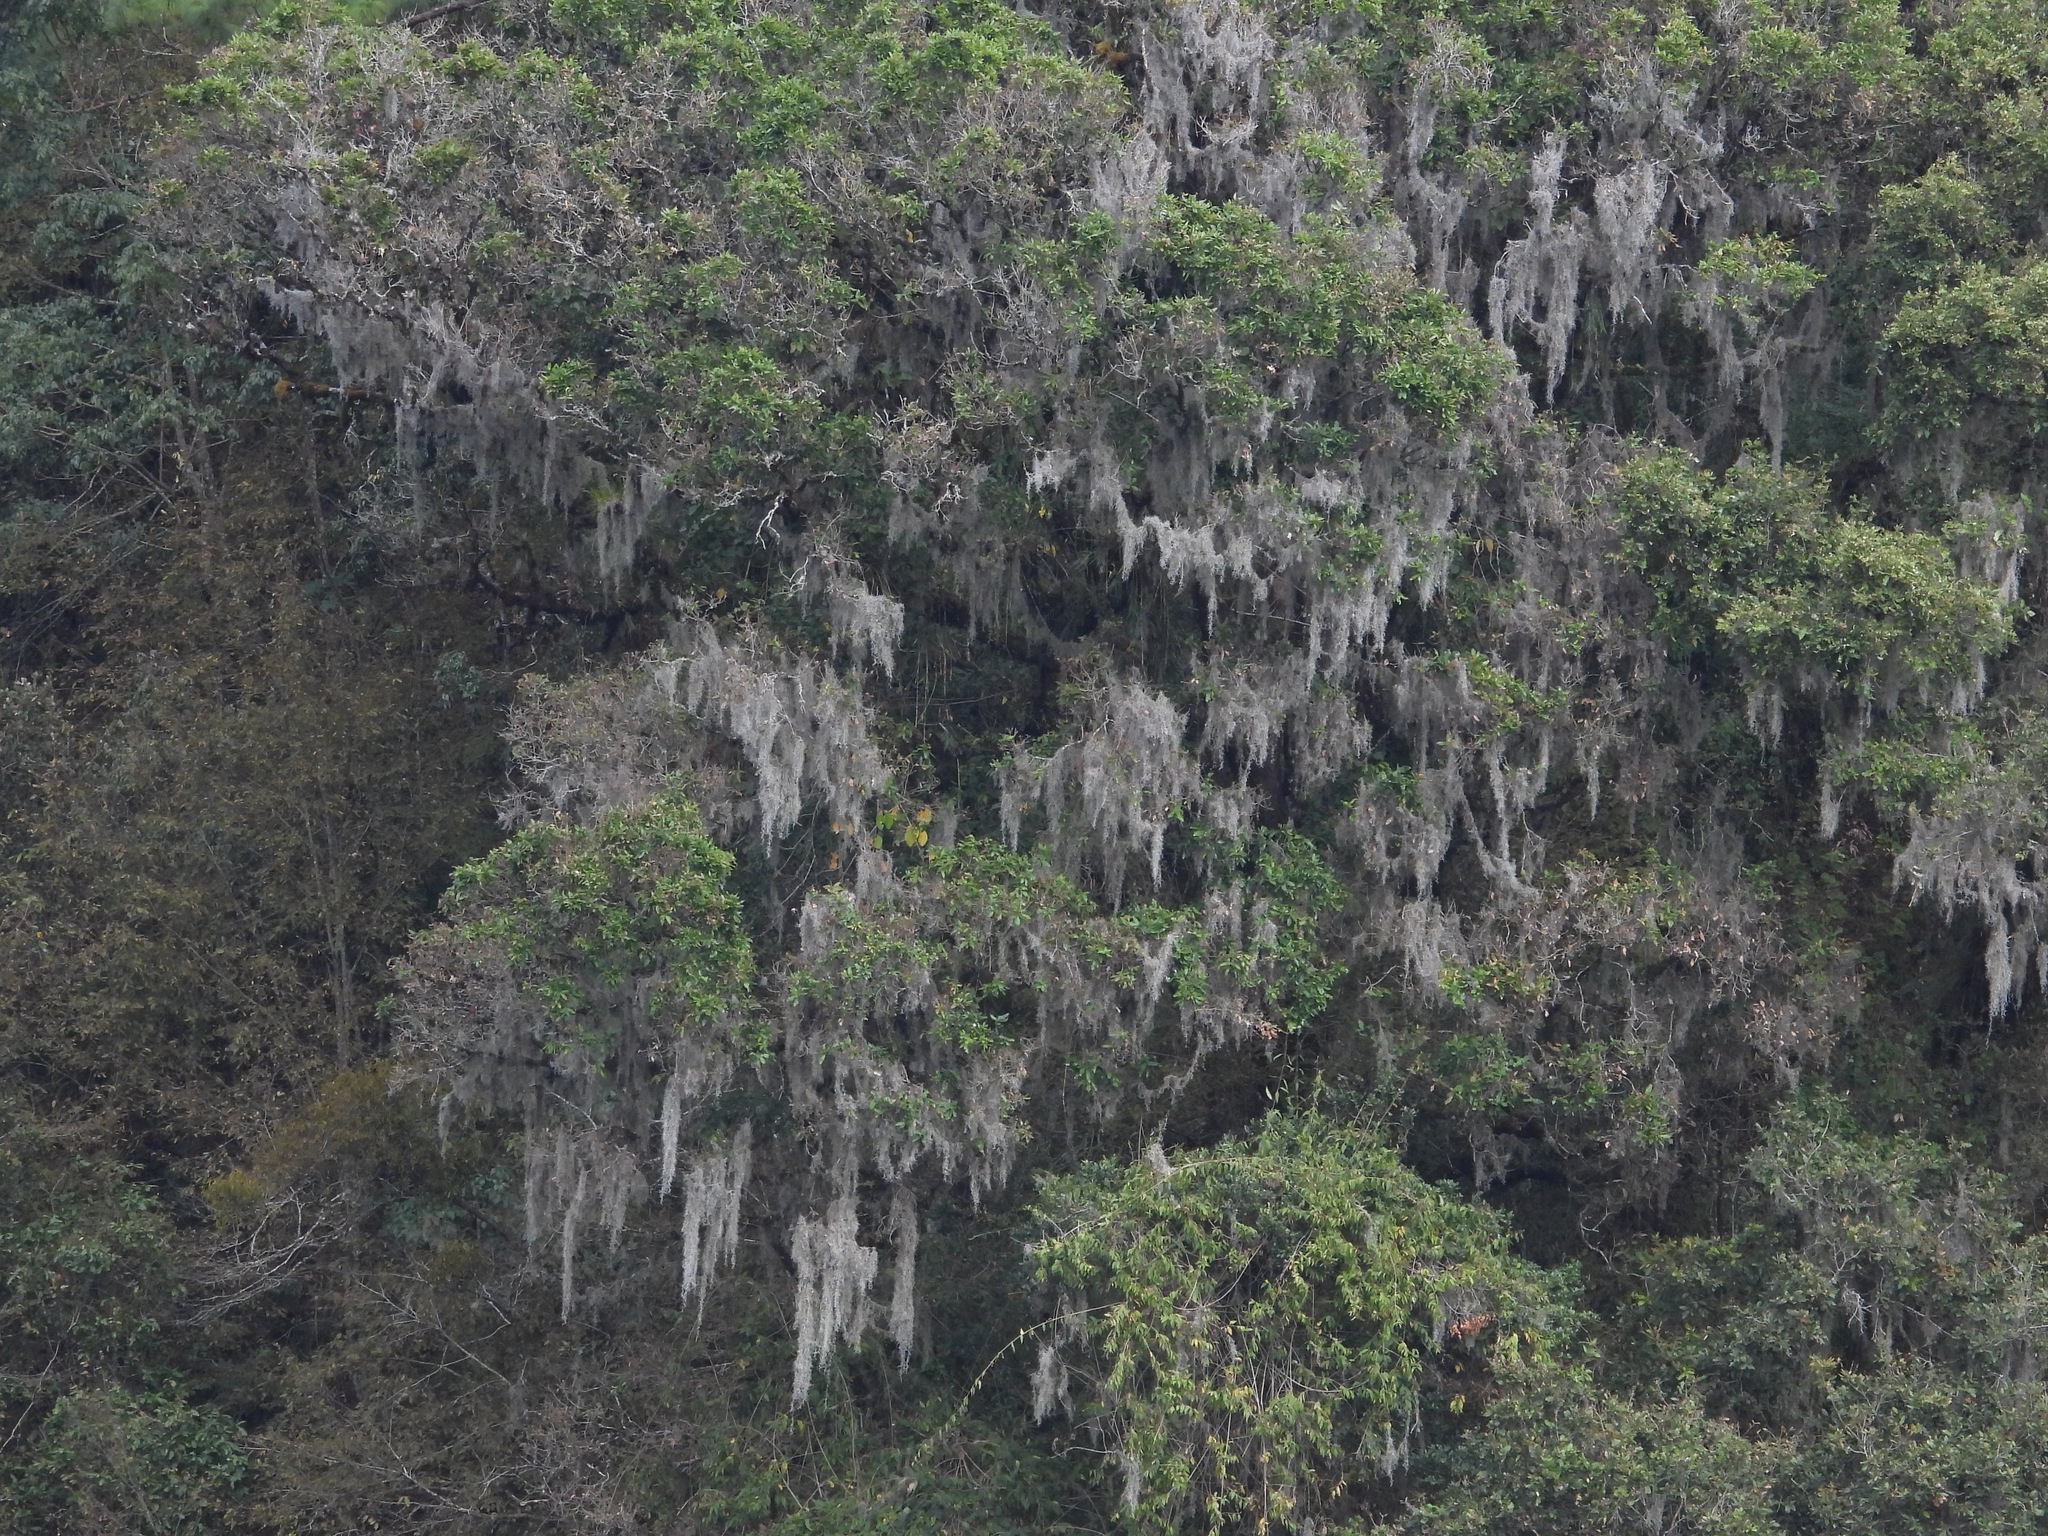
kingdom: Plantae
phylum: Tracheophyta
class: Liliopsida
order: Poales
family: Bromeliaceae
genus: Tillandsia
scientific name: Tillandsia usneoides
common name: Spanish moss
